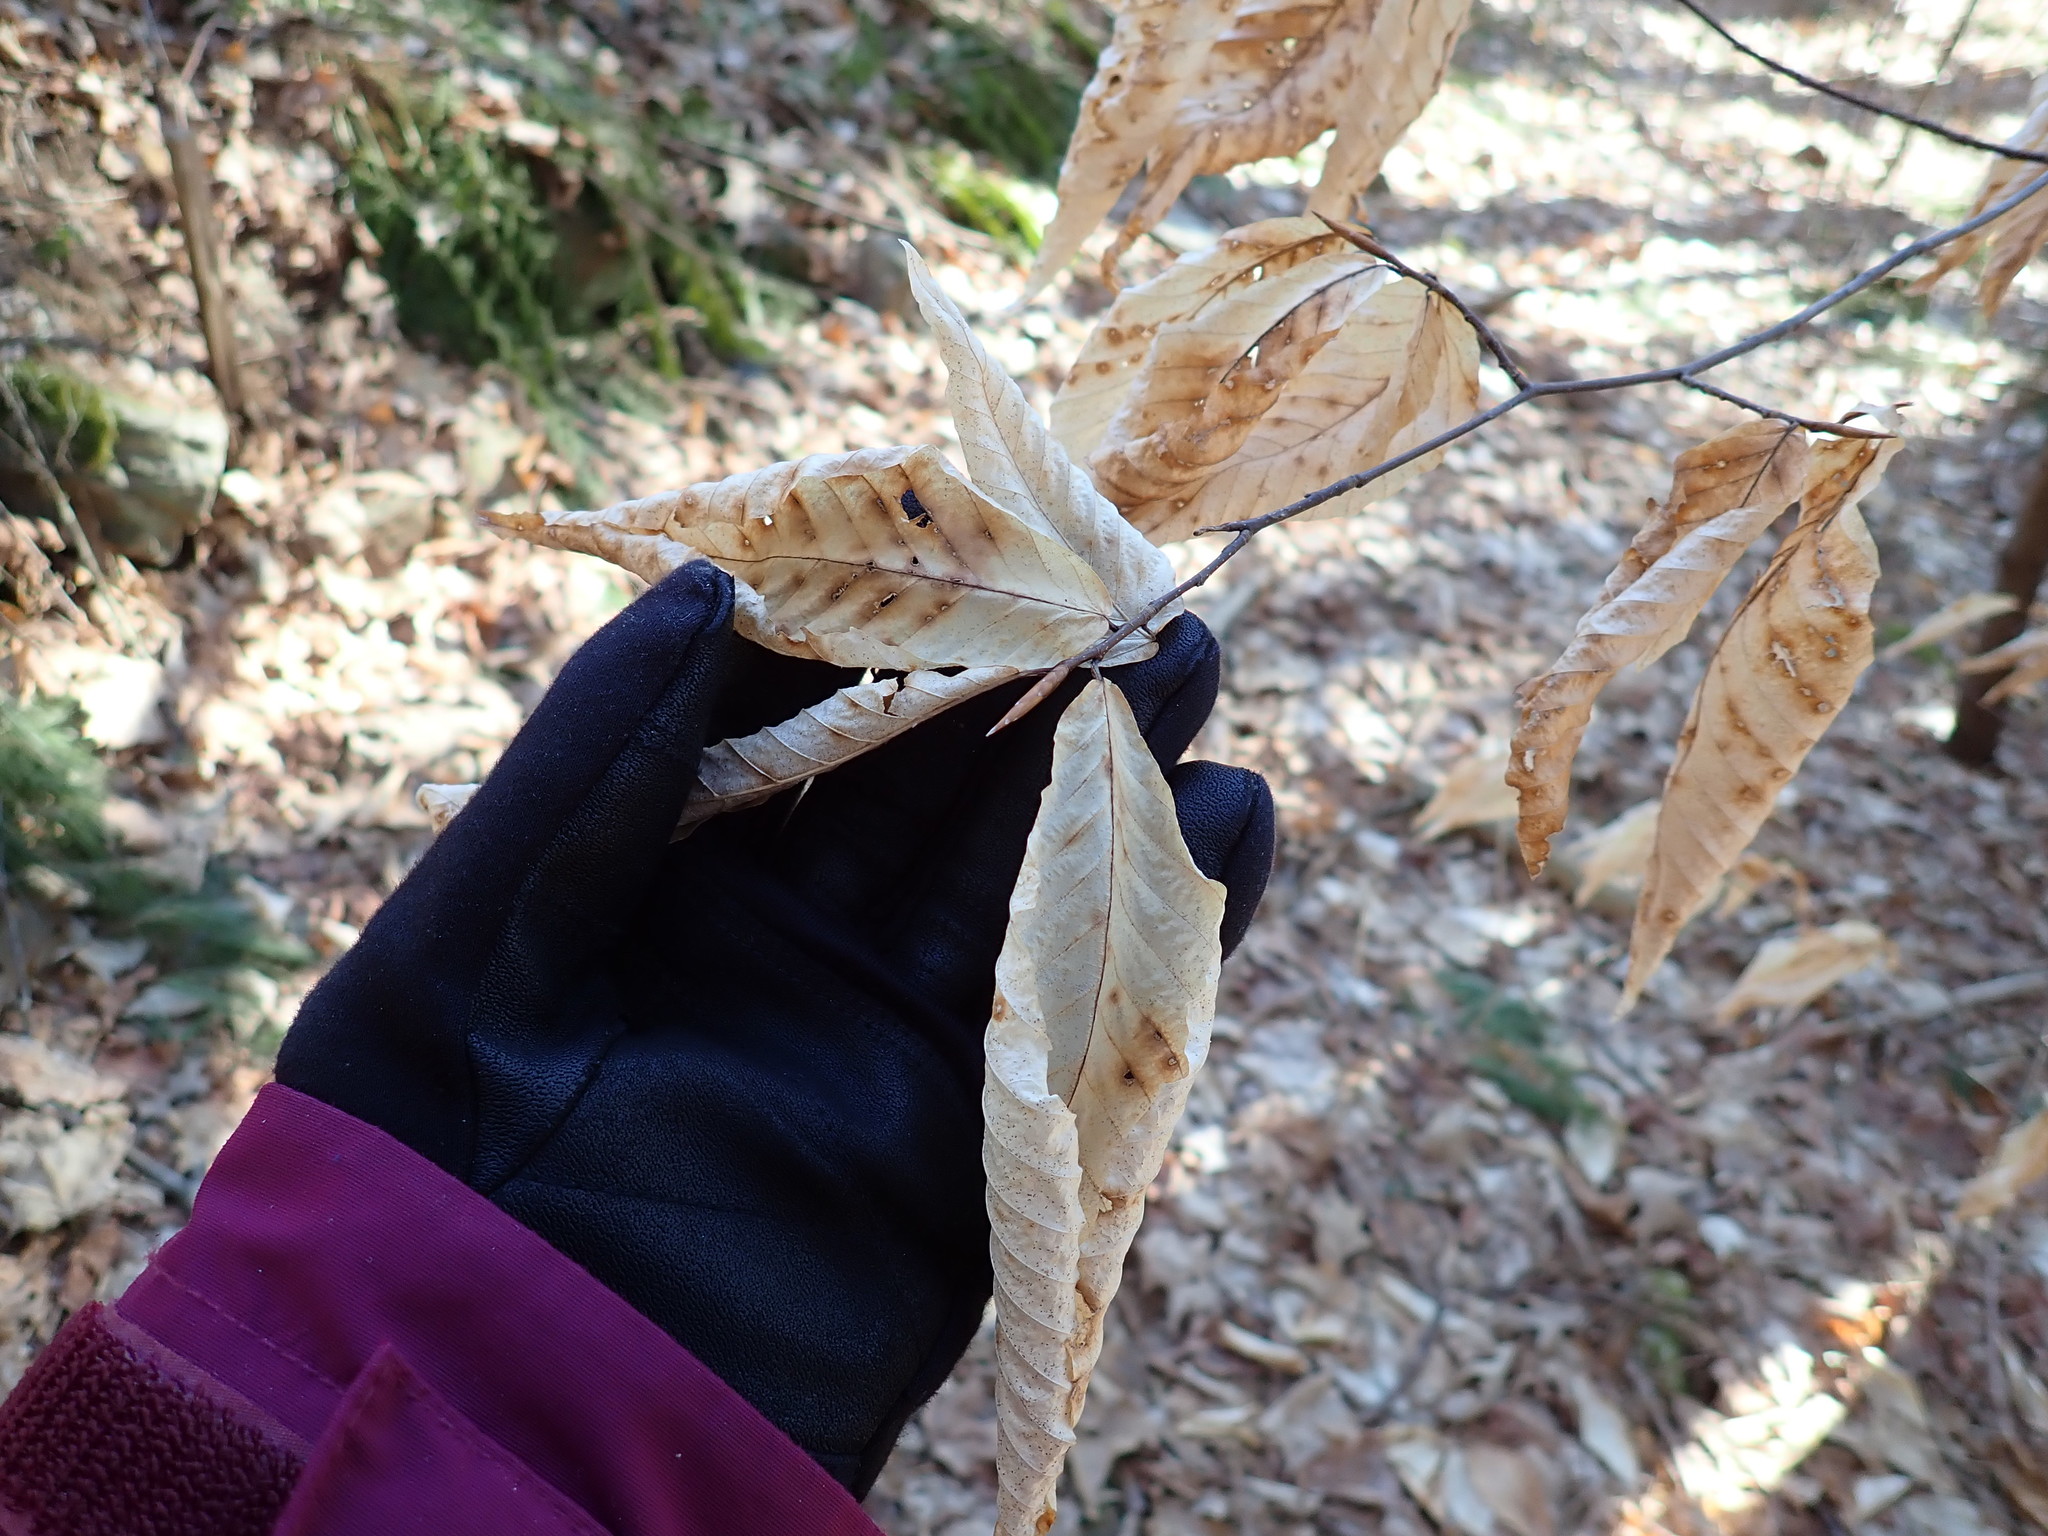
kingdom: Plantae
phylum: Tracheophyta
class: Magnoliopsida
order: Fagales
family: Fagaceae
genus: Fagus
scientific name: Fagus grandifolia
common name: American beech
